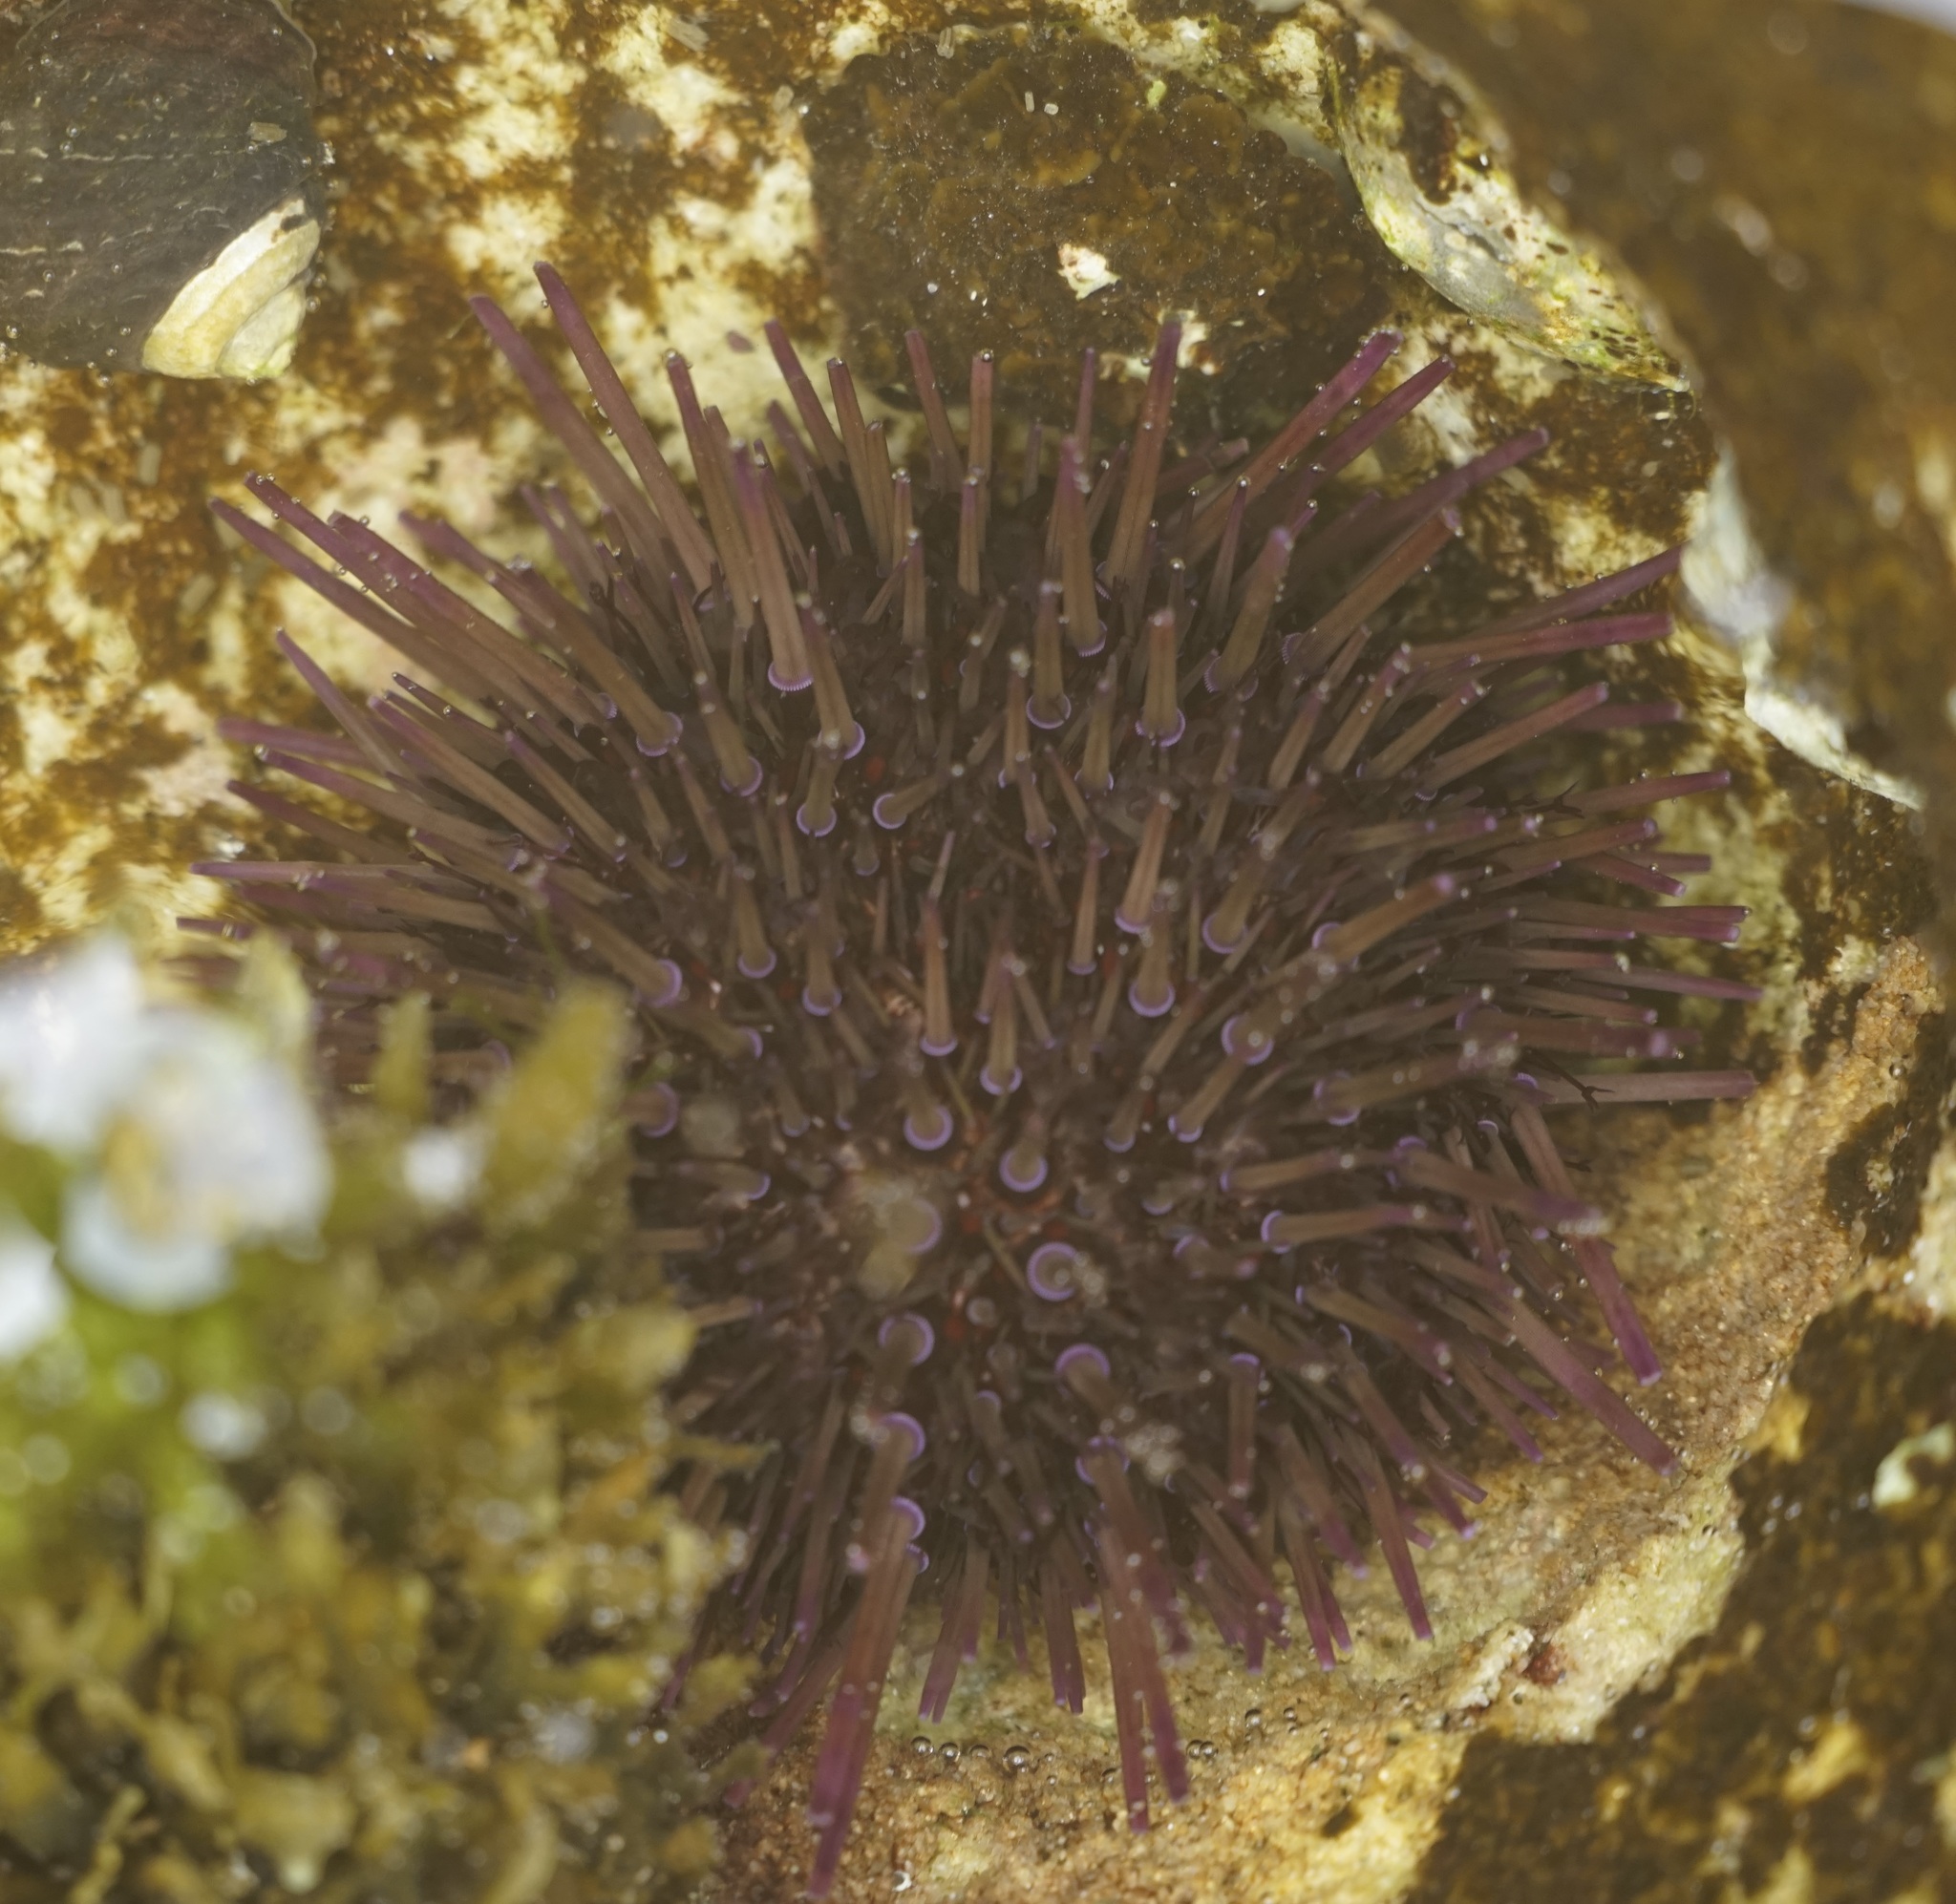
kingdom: Animalia
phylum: Echinodermata
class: Echinoidea
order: Camarodonta
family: Echinometridae
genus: Heliocidaris
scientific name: Heliocidaris erythrogramma
